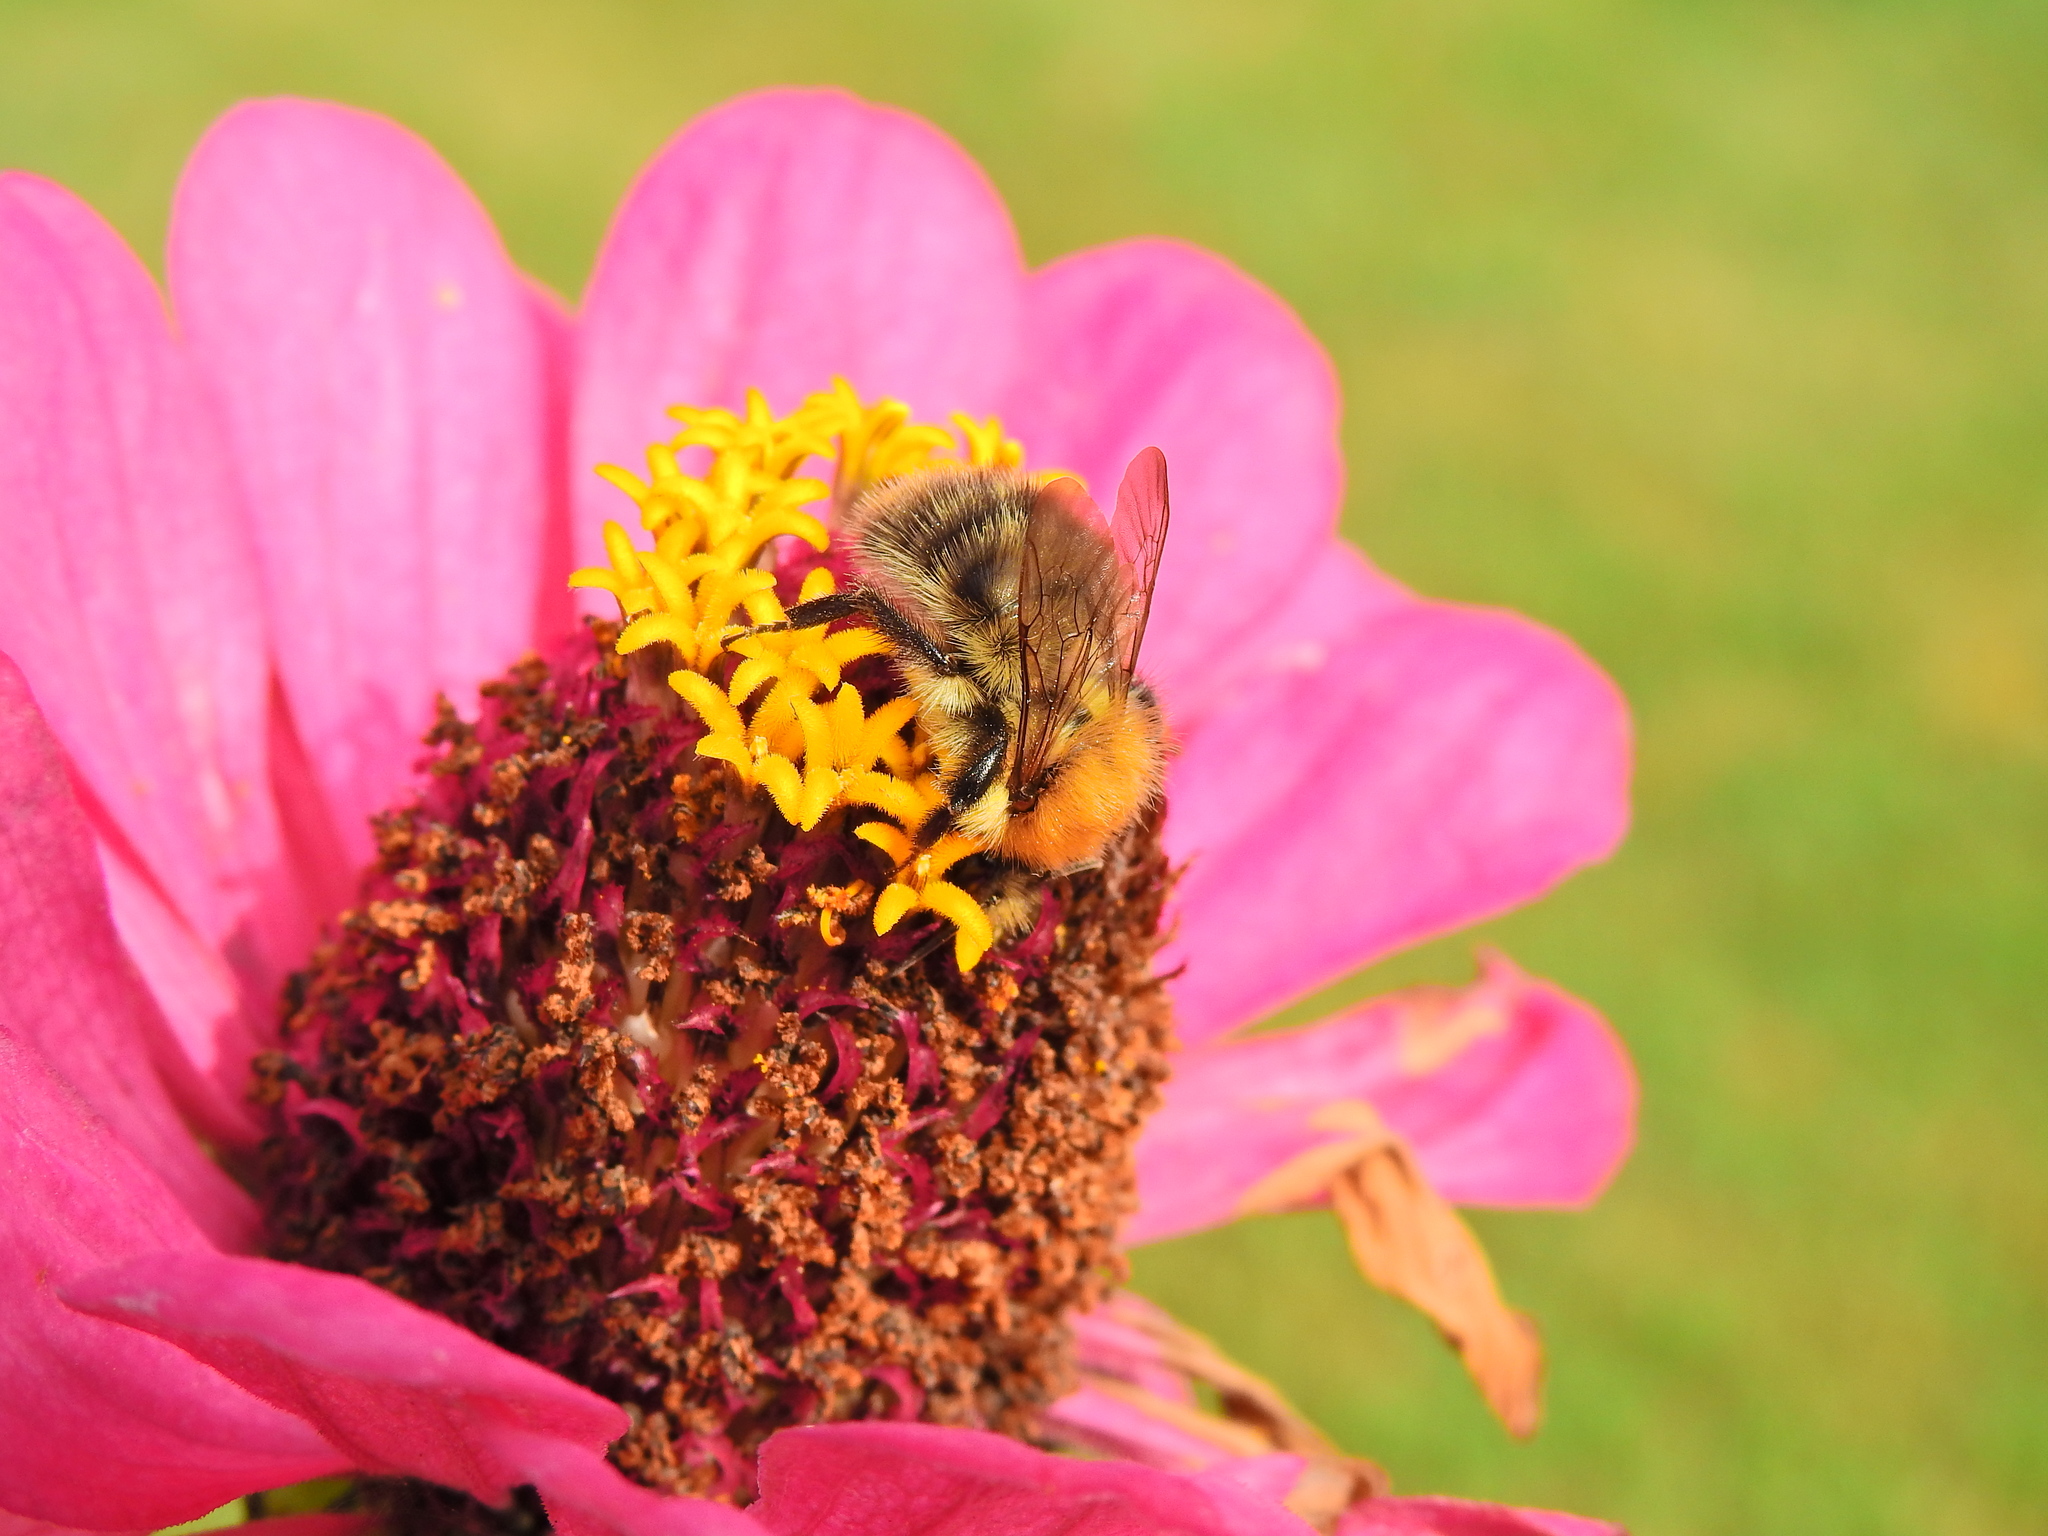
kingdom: Animalia
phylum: Arthropoda
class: Insecta
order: Hymenoptera
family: Apidae
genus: Bombus
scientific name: Bombus pascuorum
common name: Common carder bee
